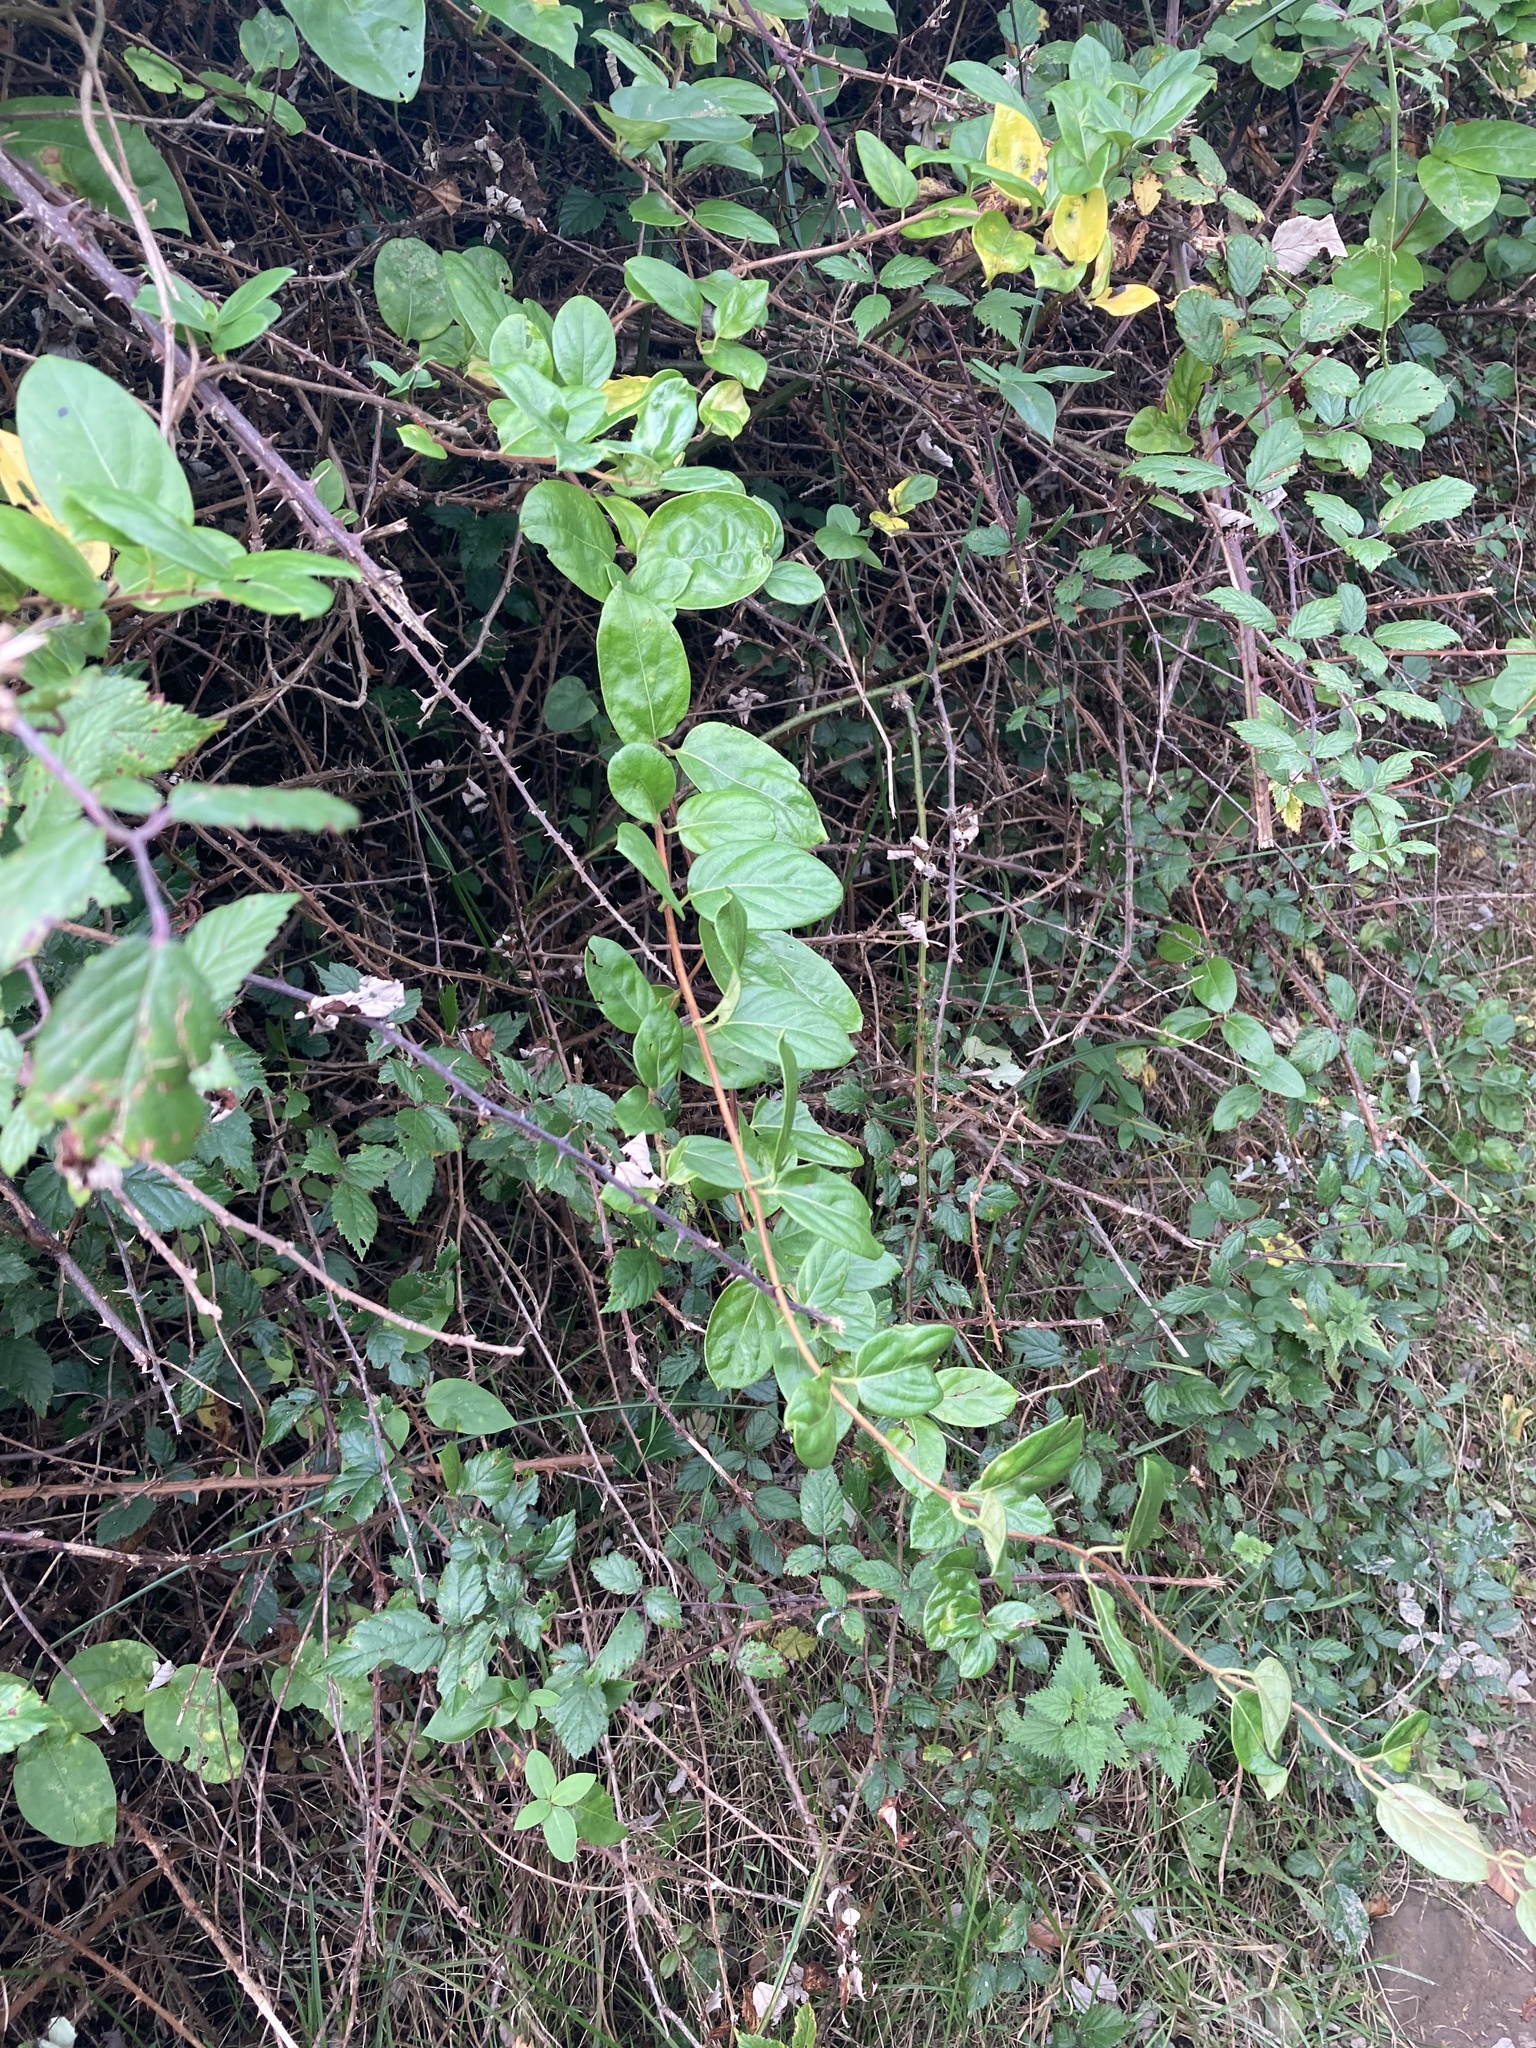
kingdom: Plantae
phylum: Tracheophyta
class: Magnoliopsida
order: Dipsacales
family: Caprifoliaceae
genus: Lonicera
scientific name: Lonicera japonica
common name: Japanese honeysuckle
